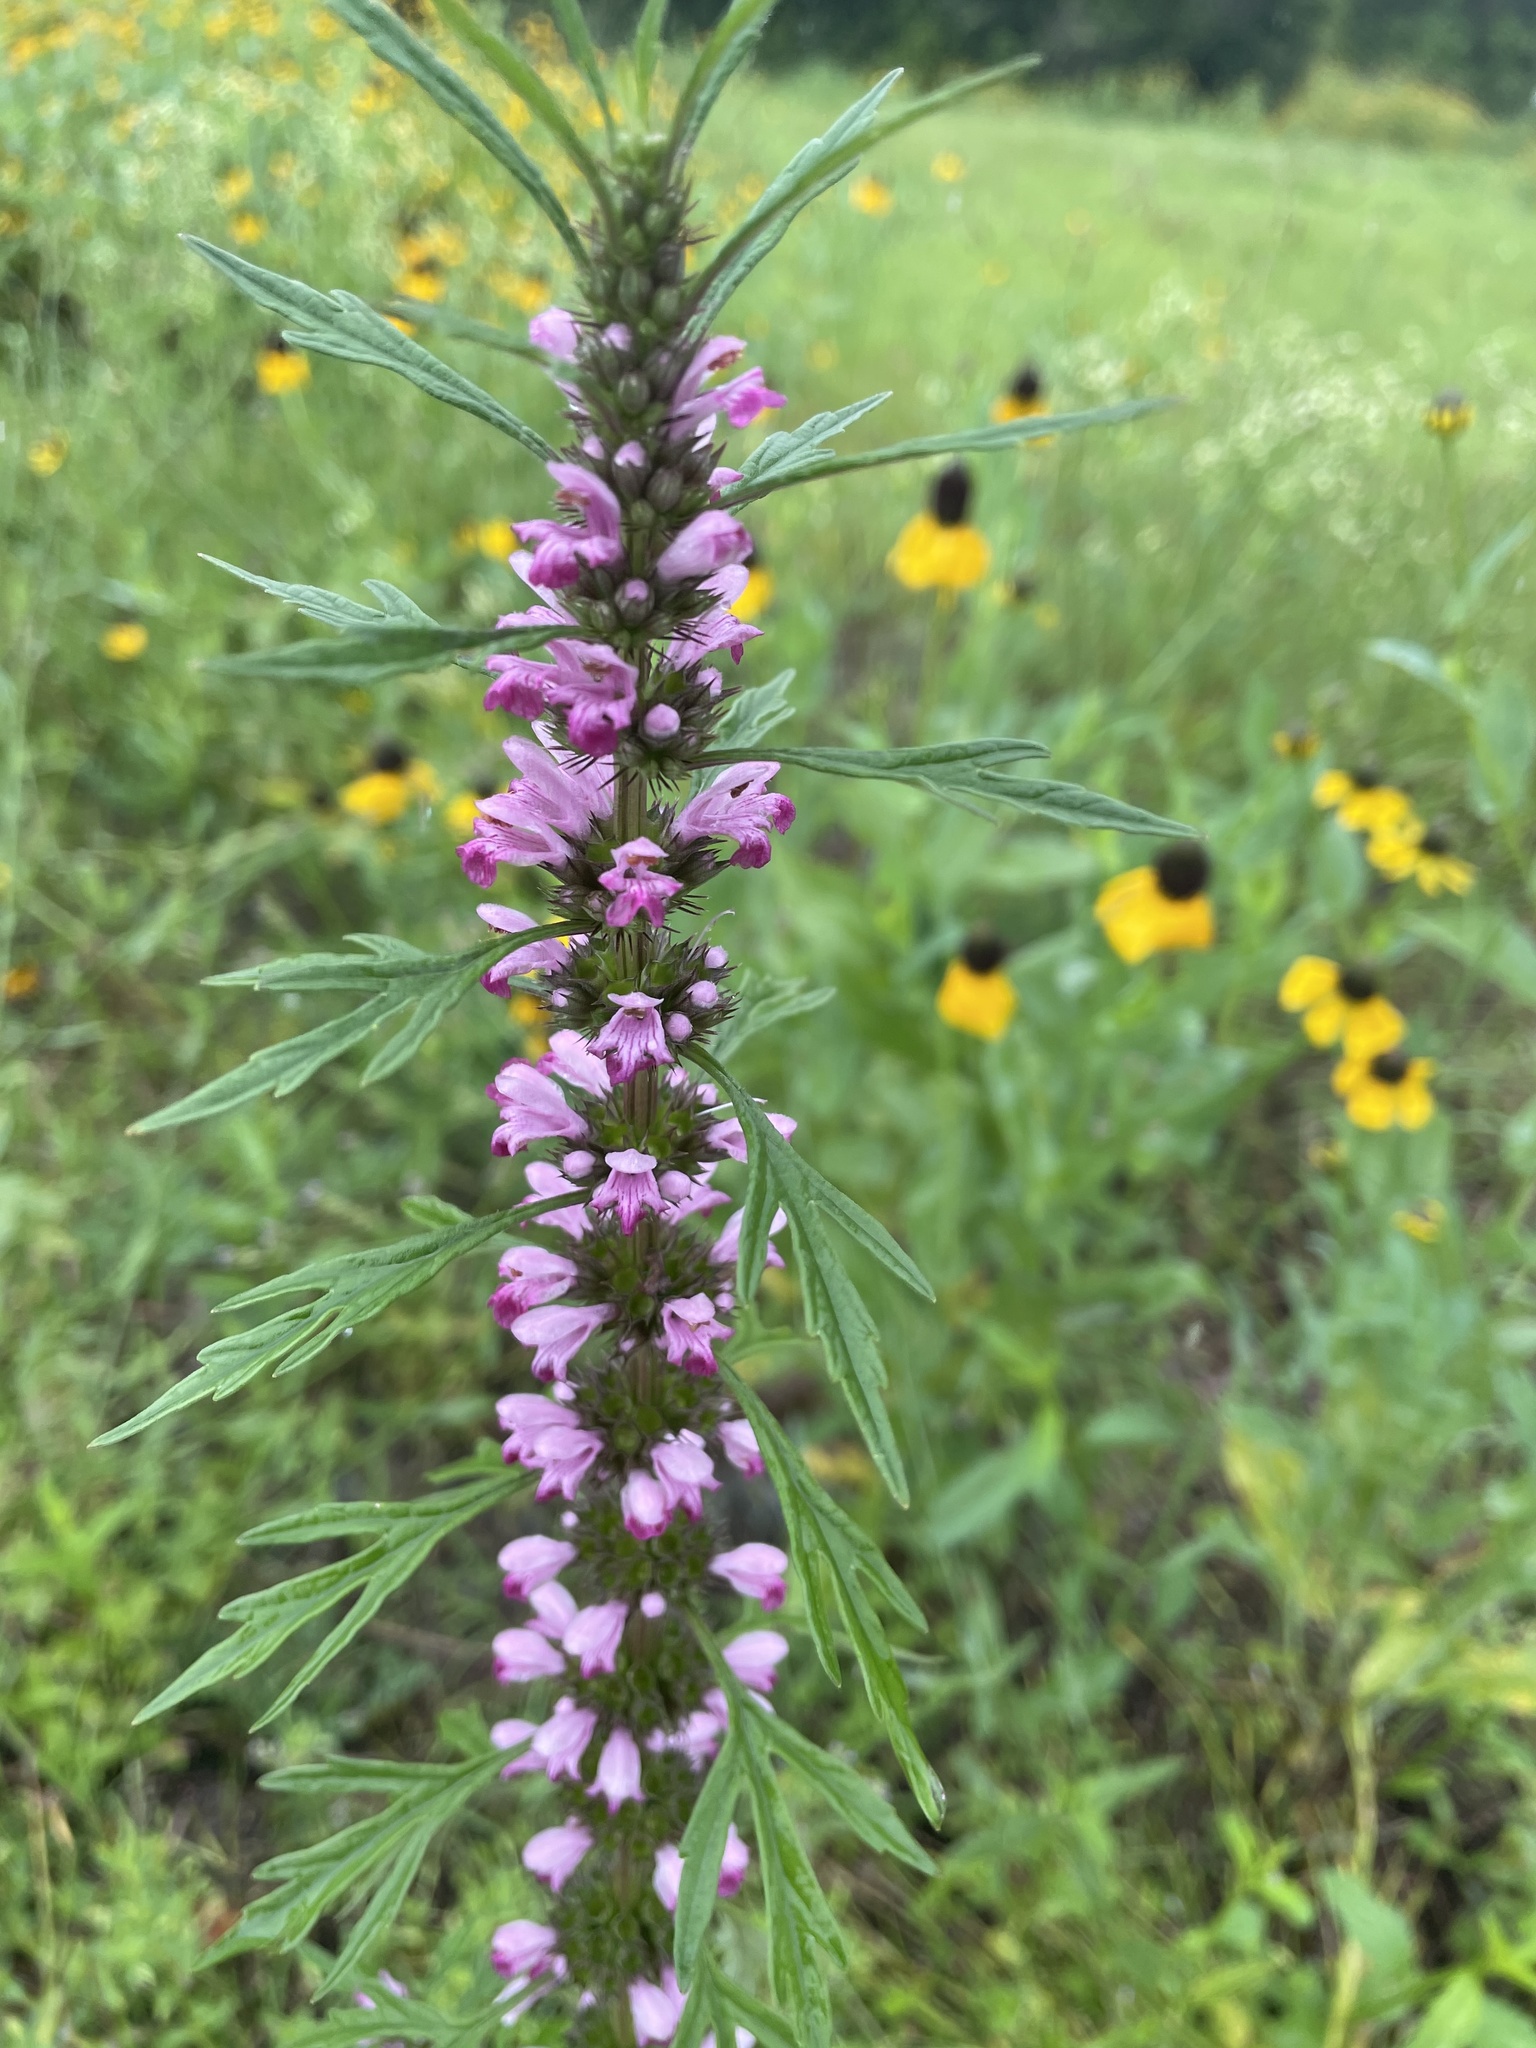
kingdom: Plantae
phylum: Tracheophyta
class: Magnoliopsida
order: Lamiales
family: Lamiaceae
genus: Leonurus
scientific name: Leonurus japonicus
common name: Honeyweed
